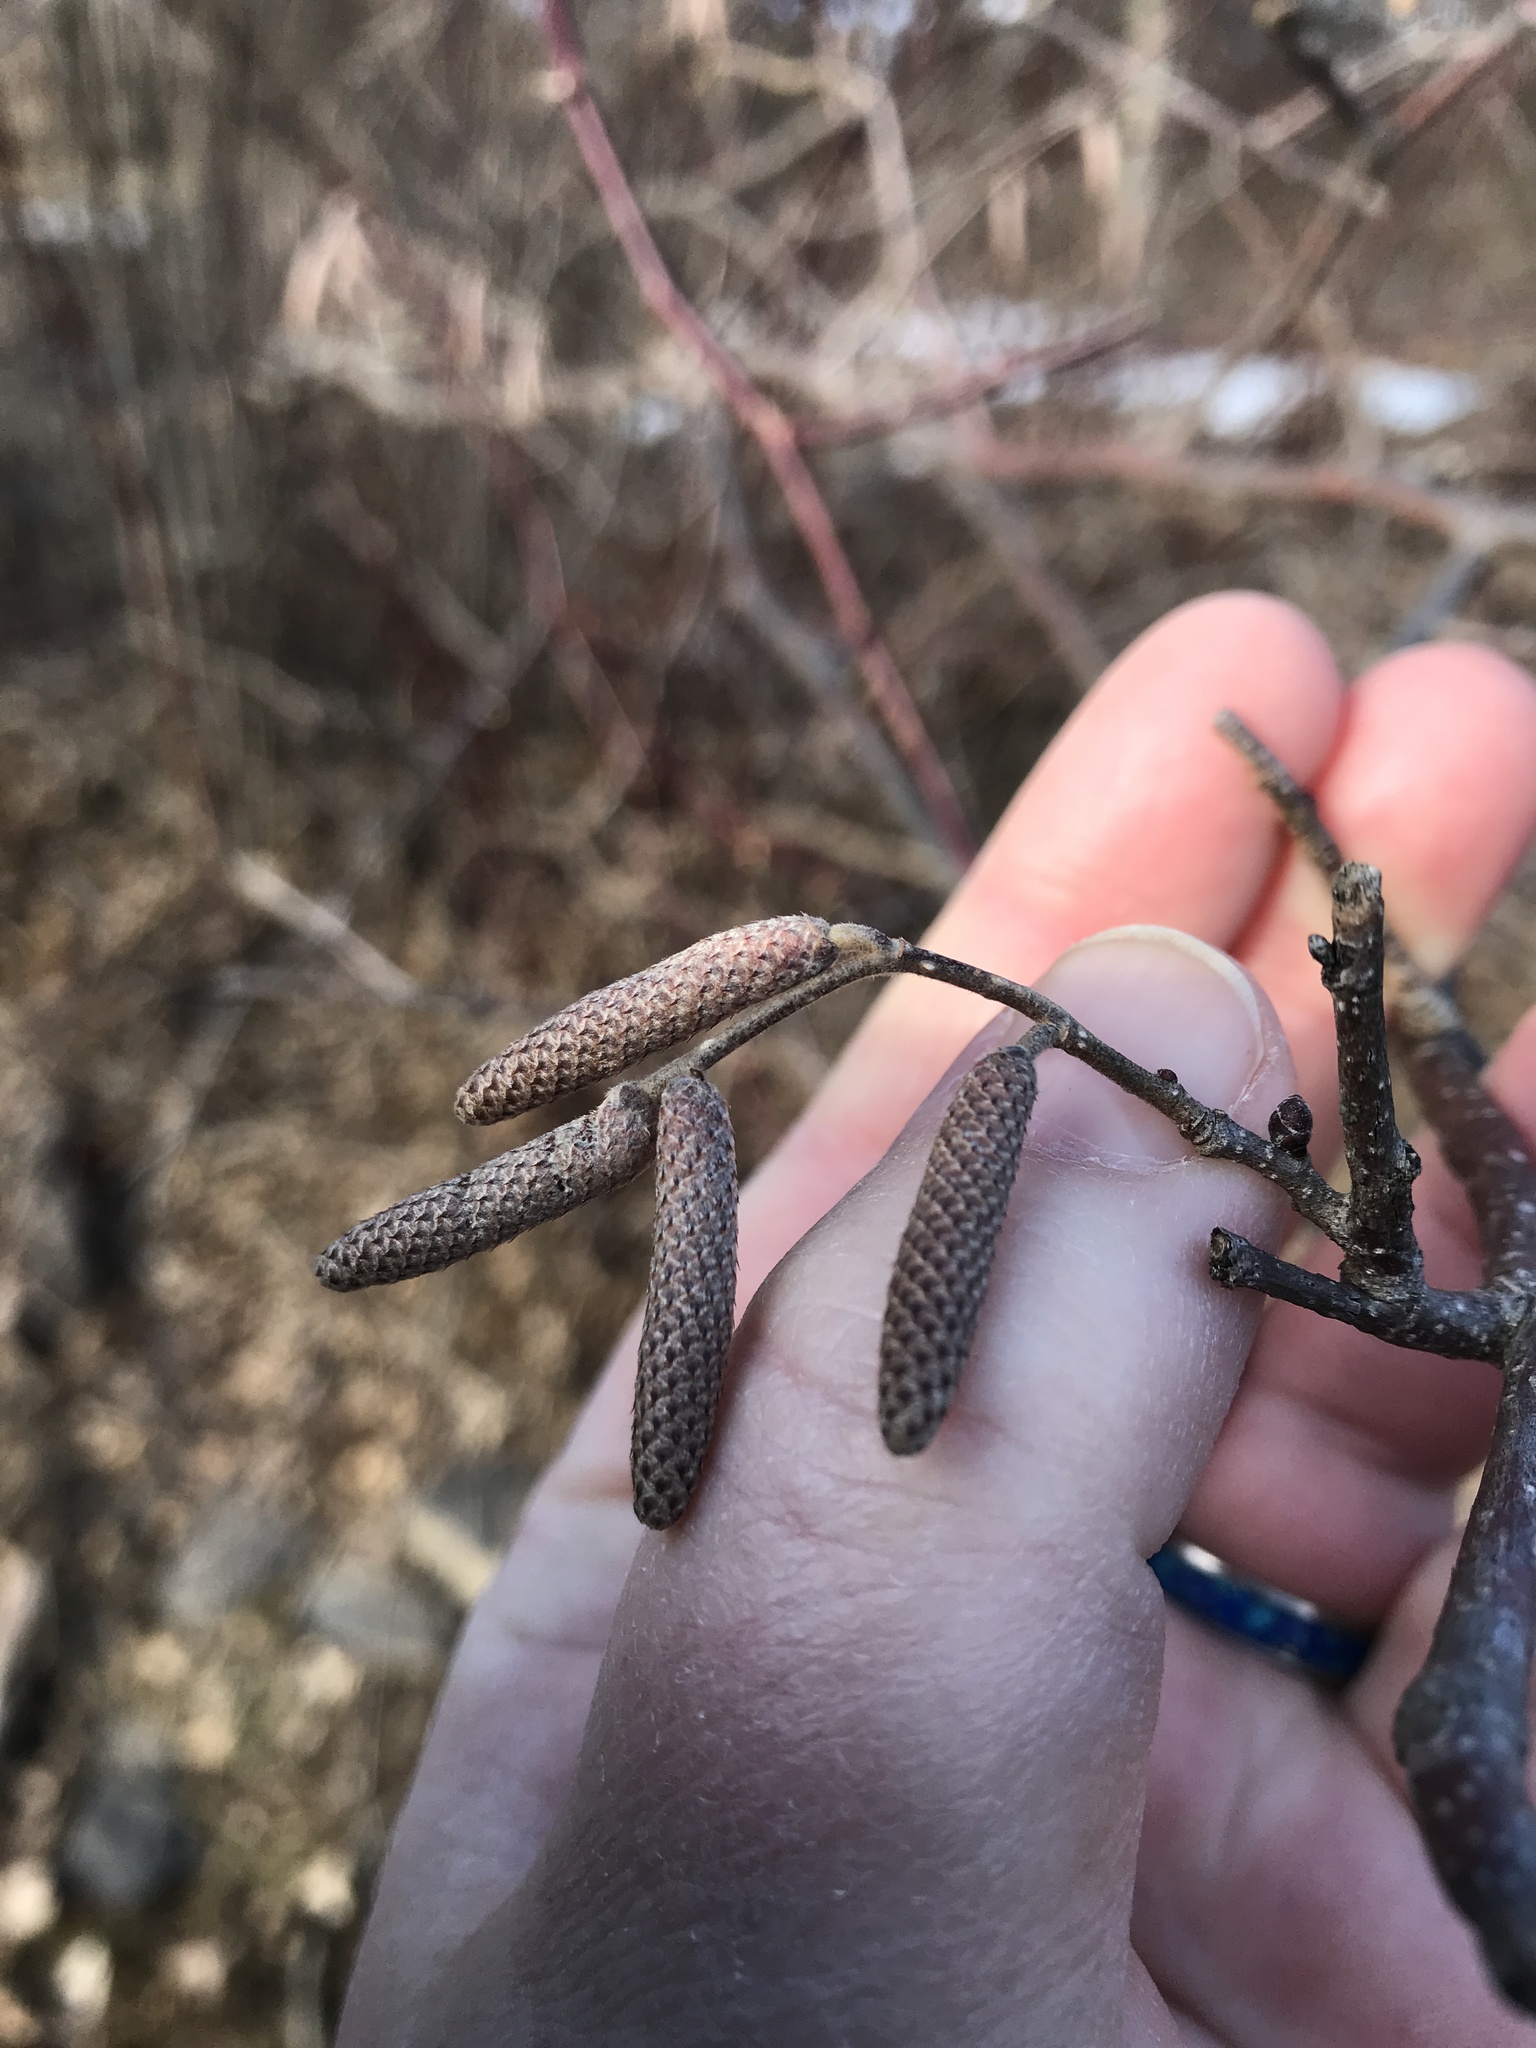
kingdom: Plantae
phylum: Tracheophyta
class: Magnoliopsida
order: Fagales
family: Betulaceae
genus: Corylus
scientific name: Corylus americana
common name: American hazel
